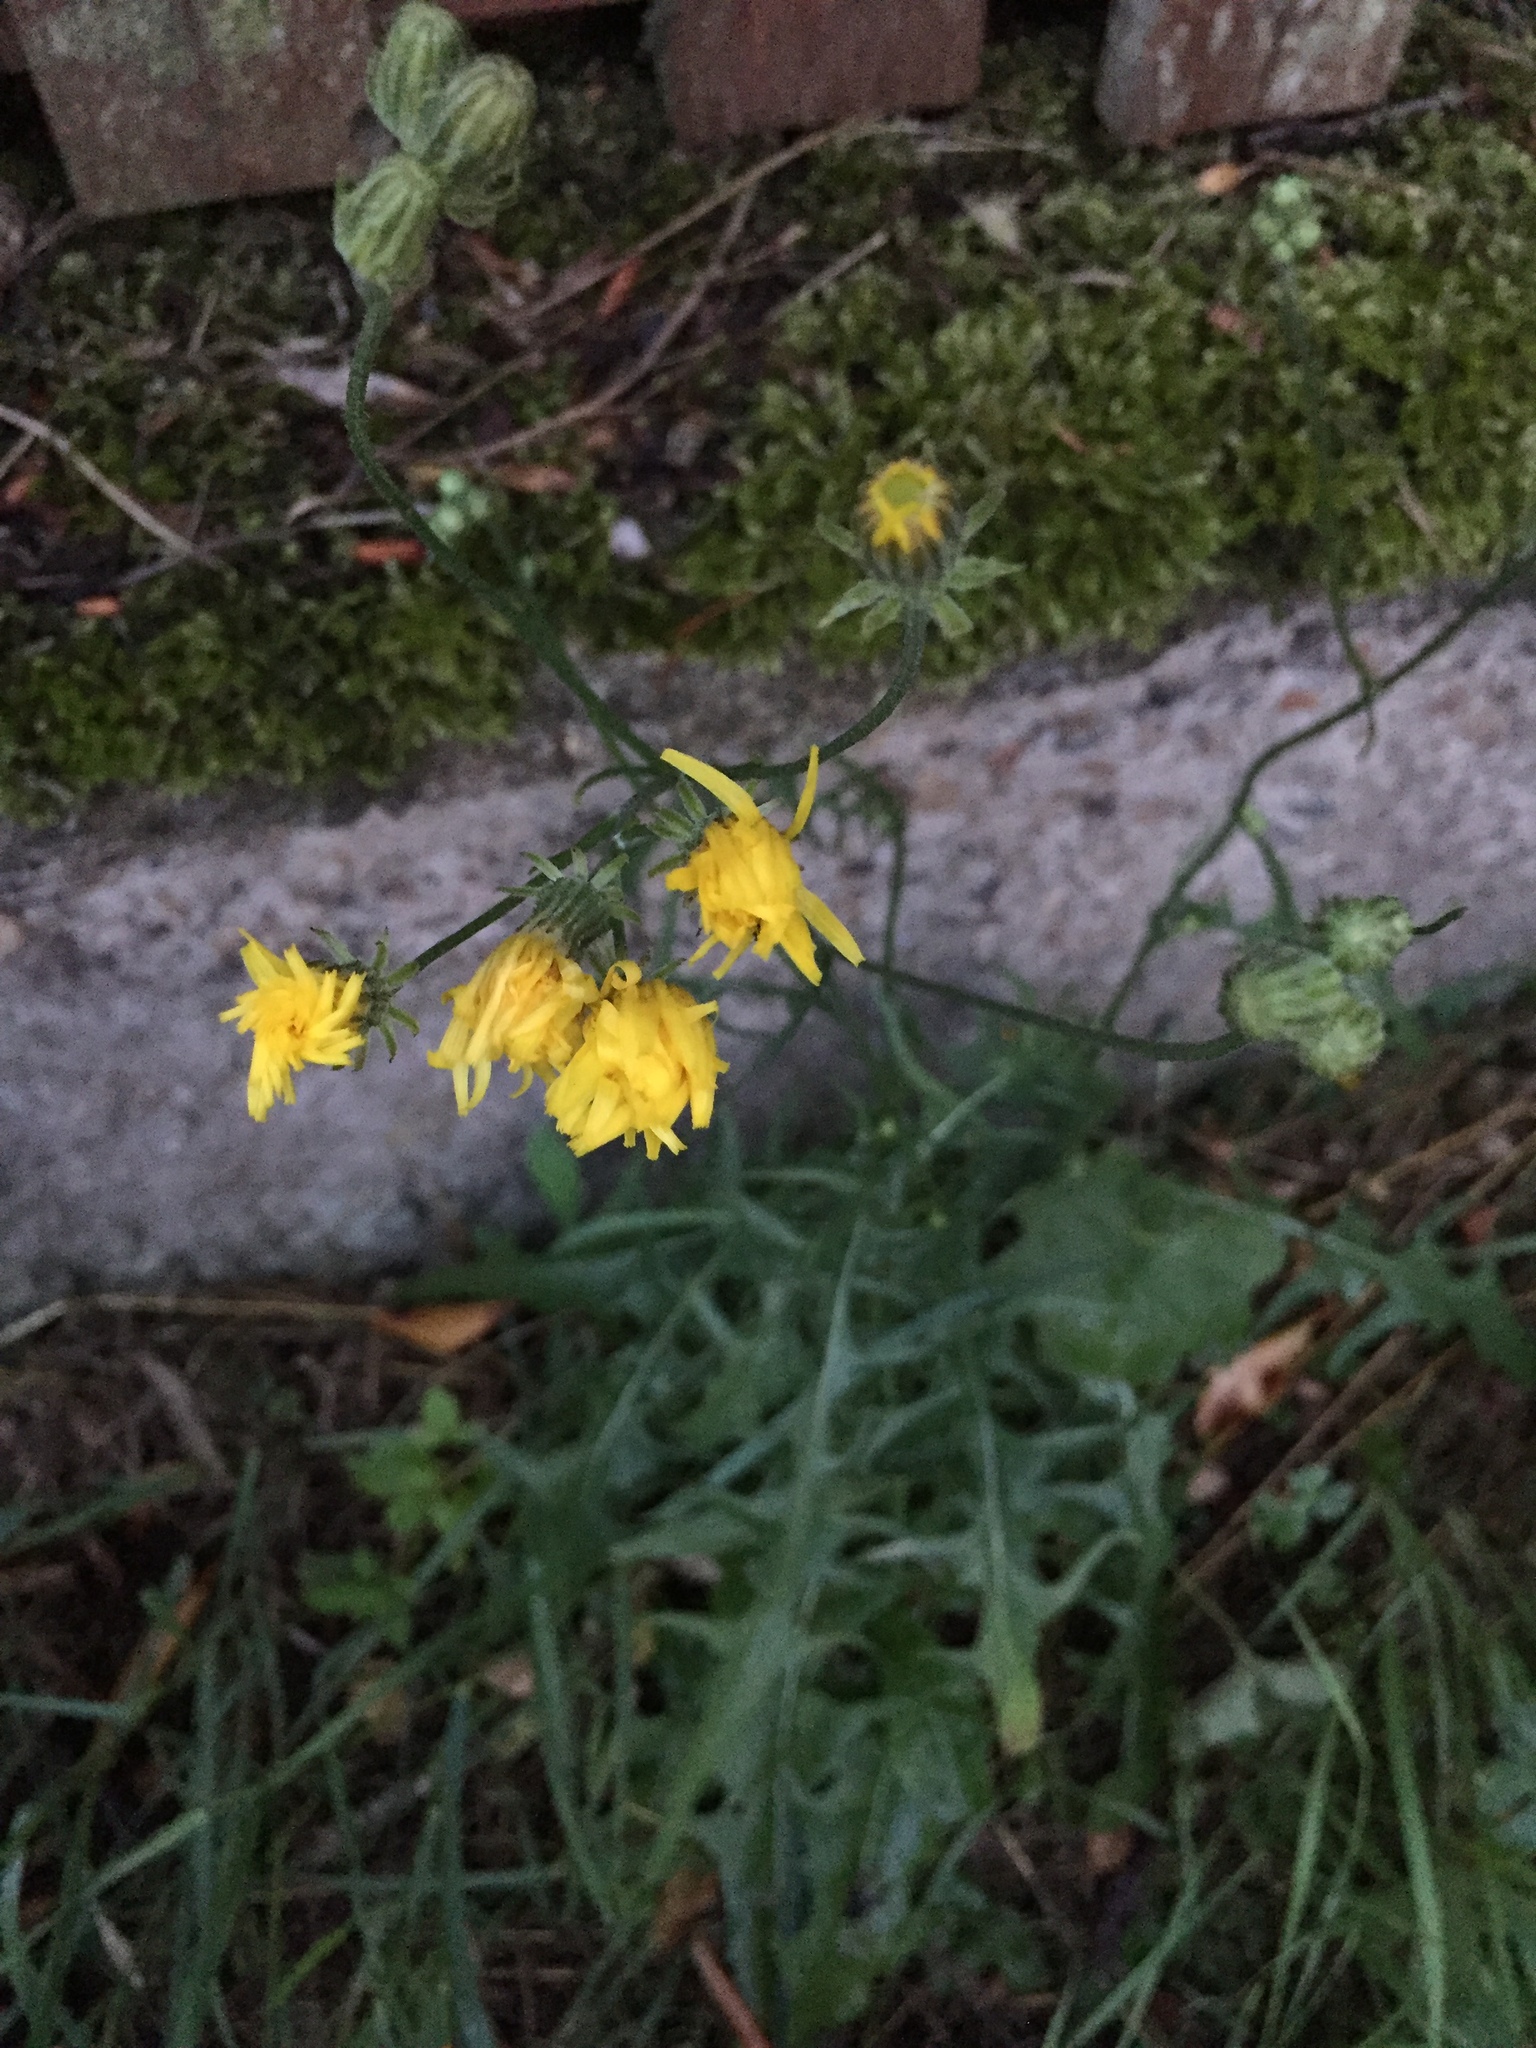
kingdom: Plantae
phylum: Tracheophyta
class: Magnoliopsida
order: Asterales
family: Asteraceae
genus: Crepis
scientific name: Crepis biennis
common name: Rough hawk's-beard
